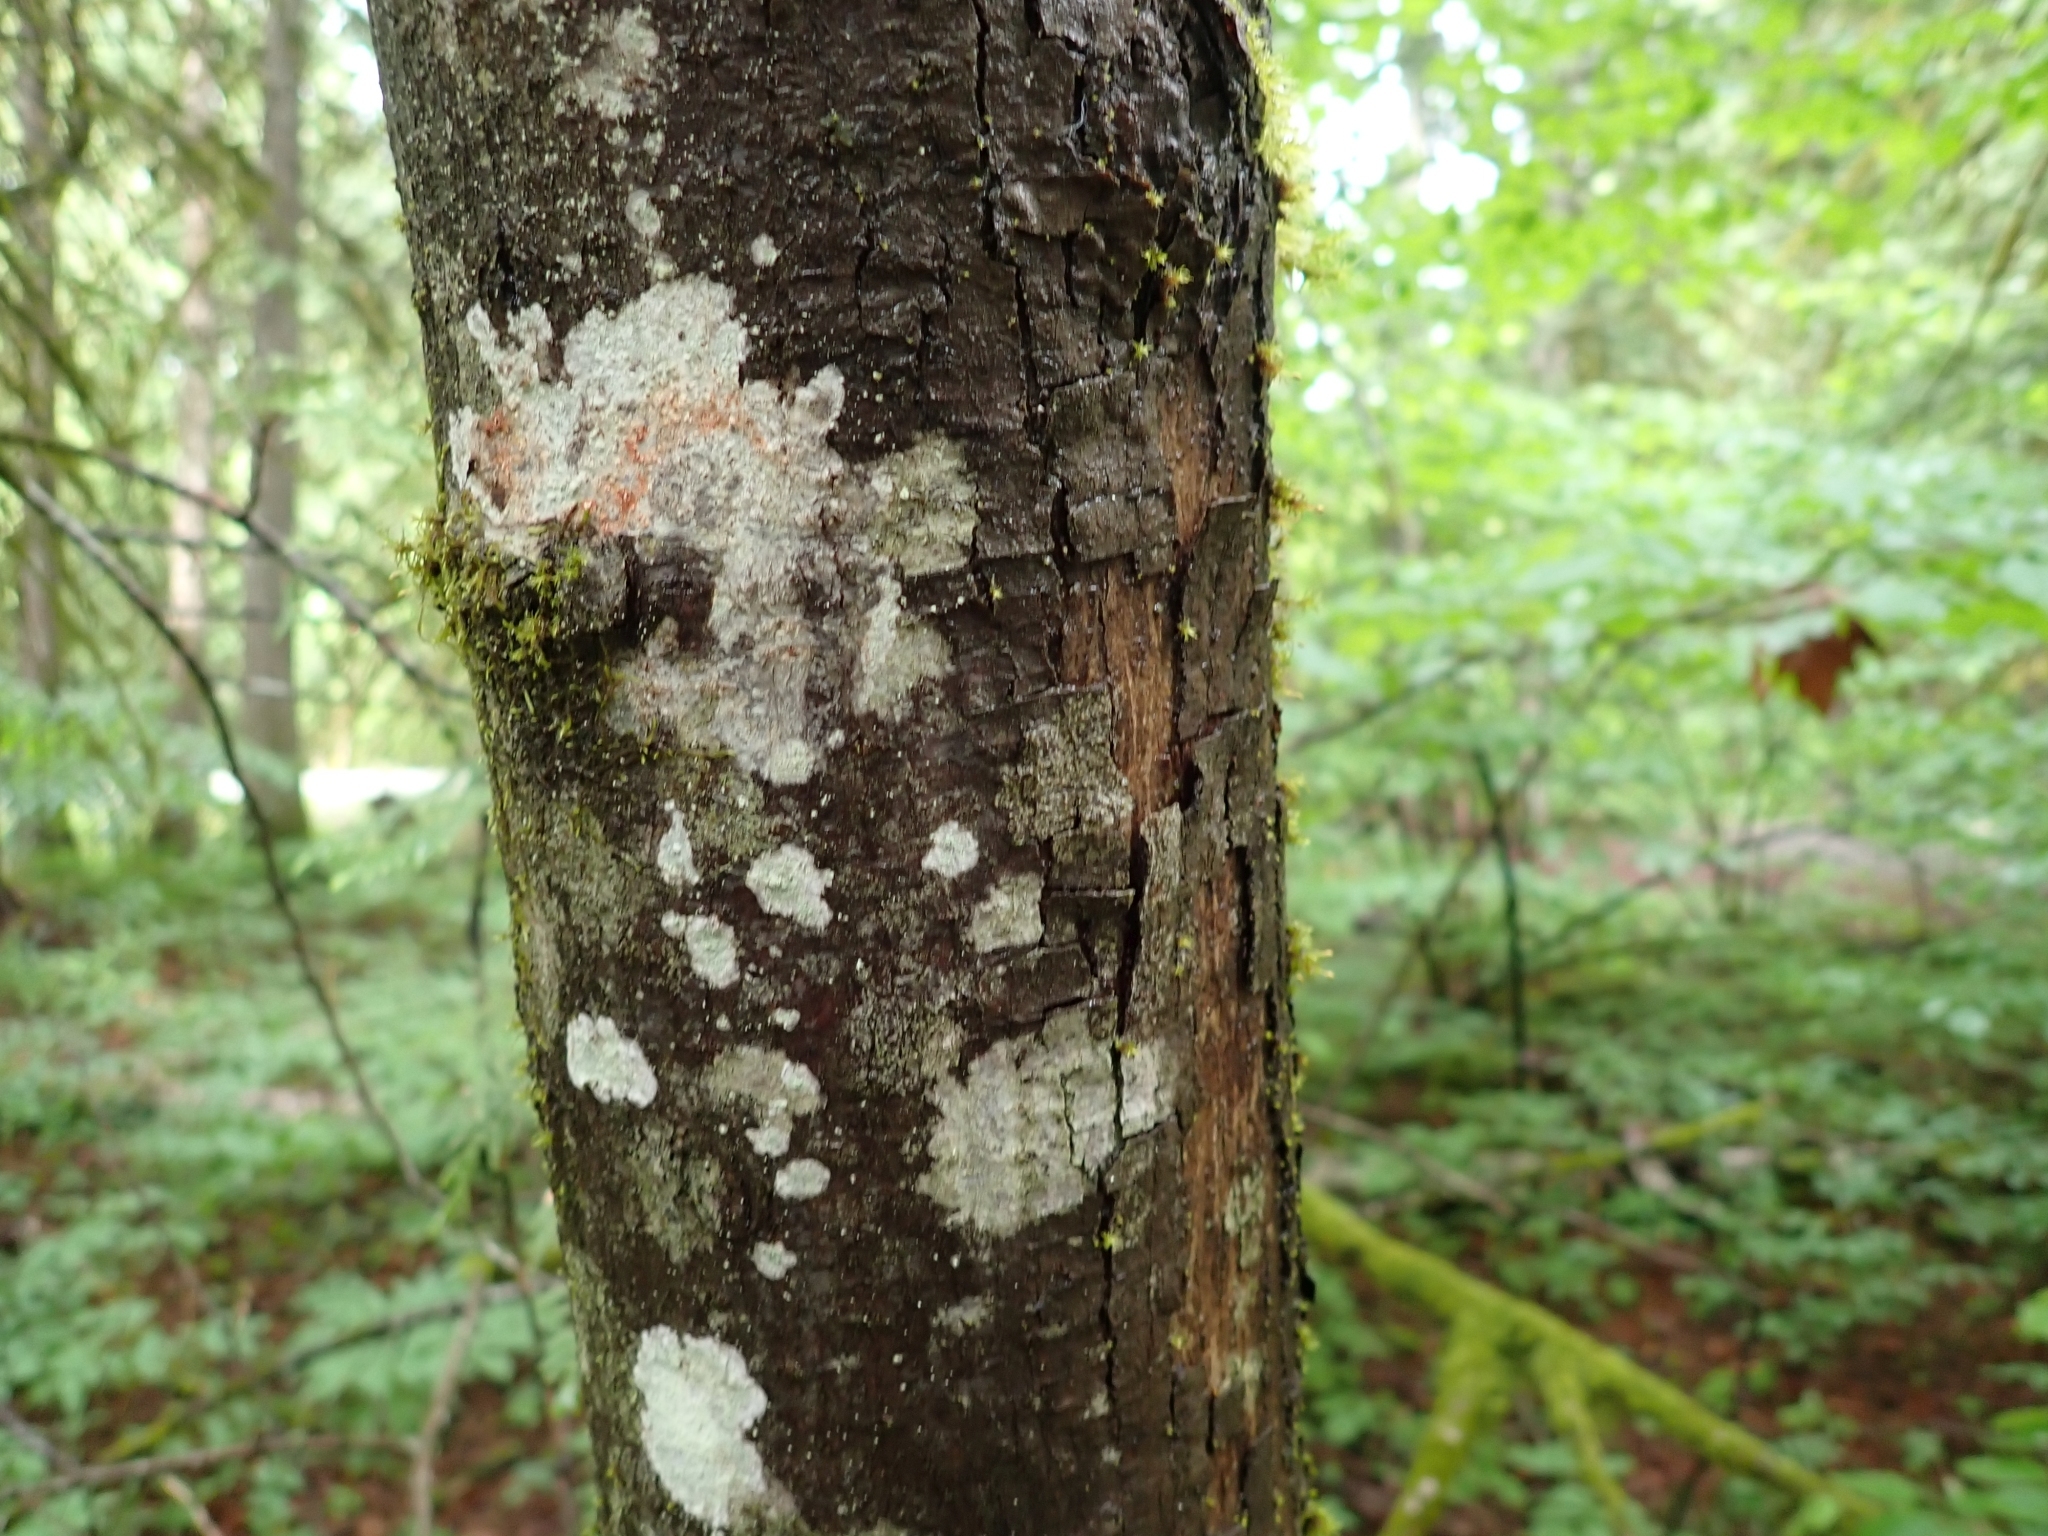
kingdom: Plantae
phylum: Tracheophyta
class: Magnoliopsida
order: Sapindales
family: Sapindaceae
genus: Acer
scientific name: Acer macrophyllum
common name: Oregon maple
